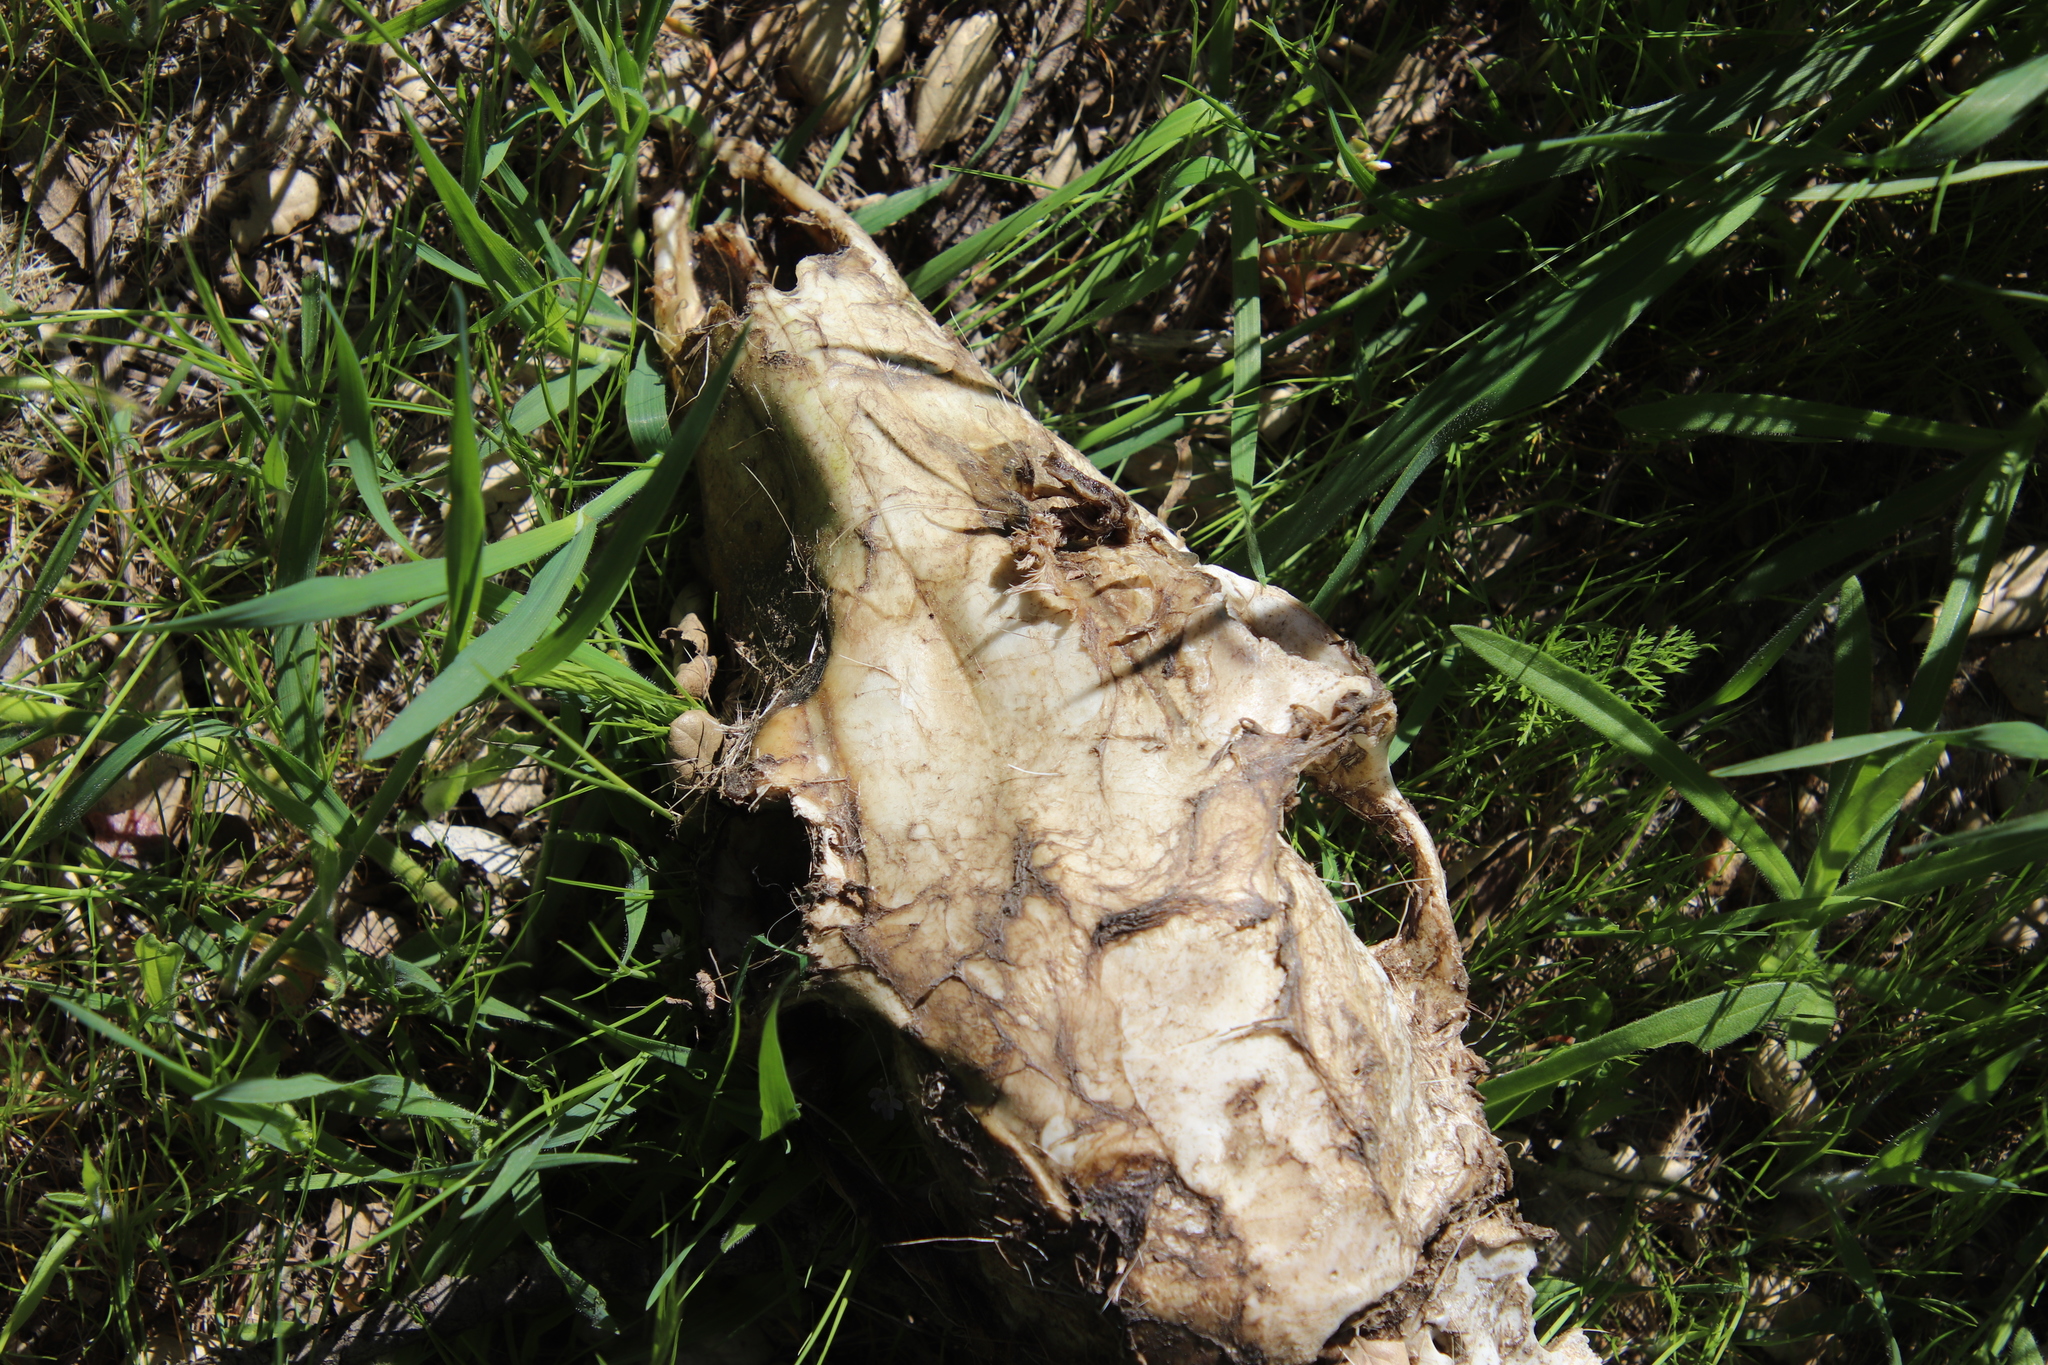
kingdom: Animalia
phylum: Chordata
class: Mammalia
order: Artiodactyla
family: Cervidae
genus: Odocoileus
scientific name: Odocoileus hemionus
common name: Mule deer
